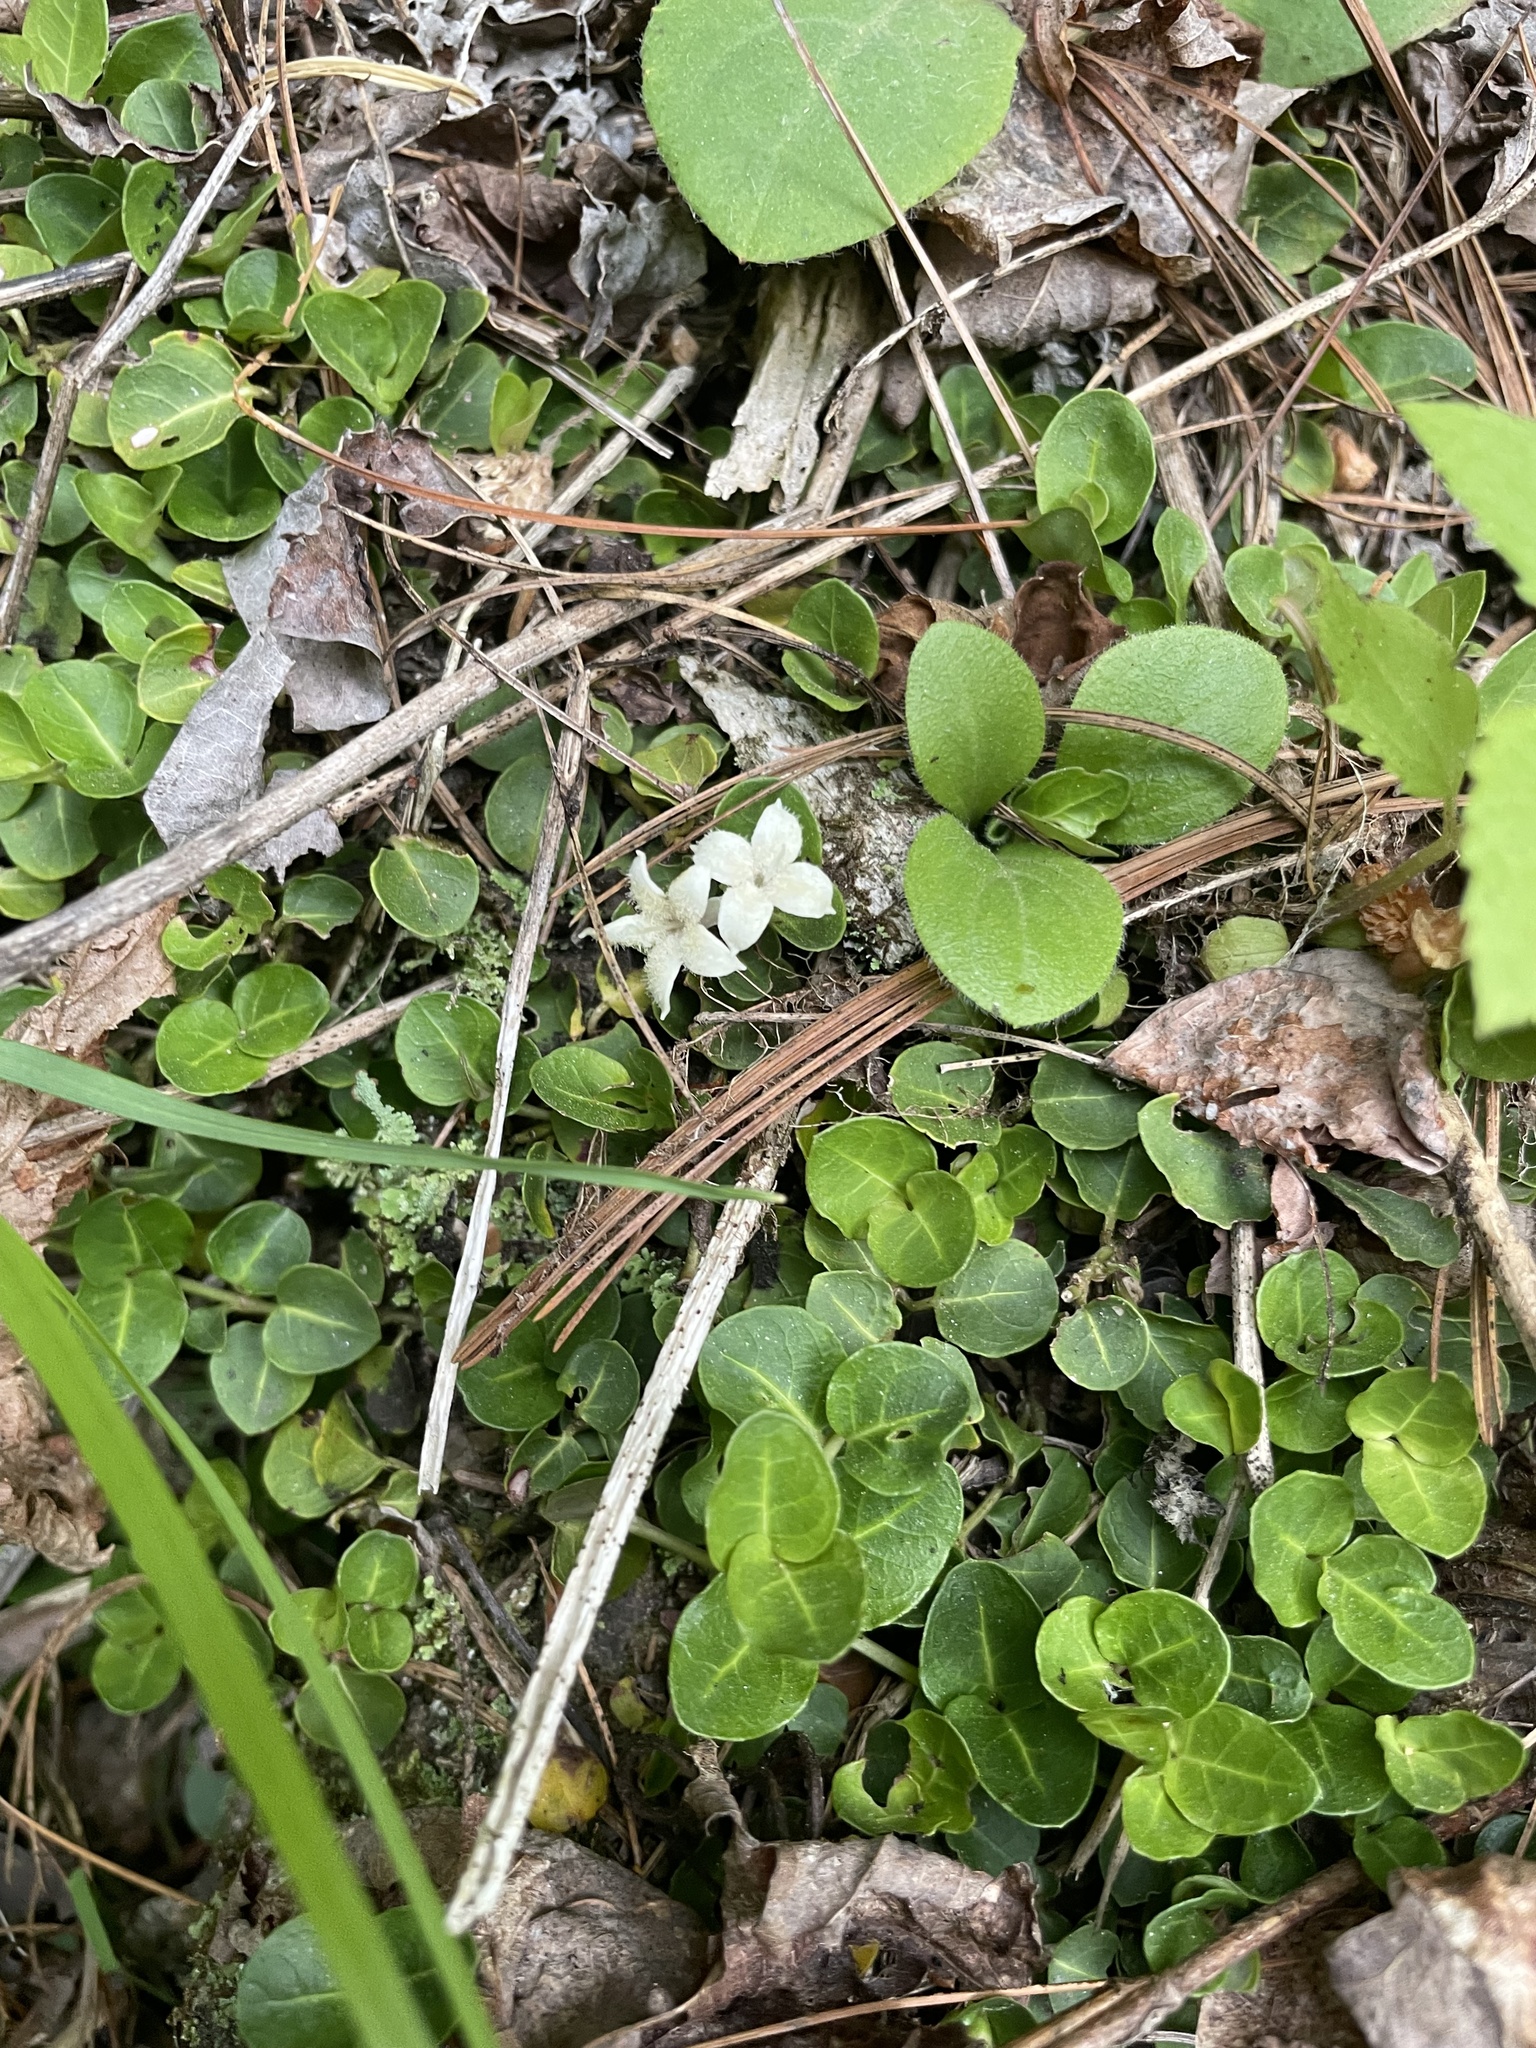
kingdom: Plantae
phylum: Tracheophyta
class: Magnoliopsida
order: Gentianales
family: Rubiaceae
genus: Mitchella
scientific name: Mitchella repens
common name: Partridge-berry
